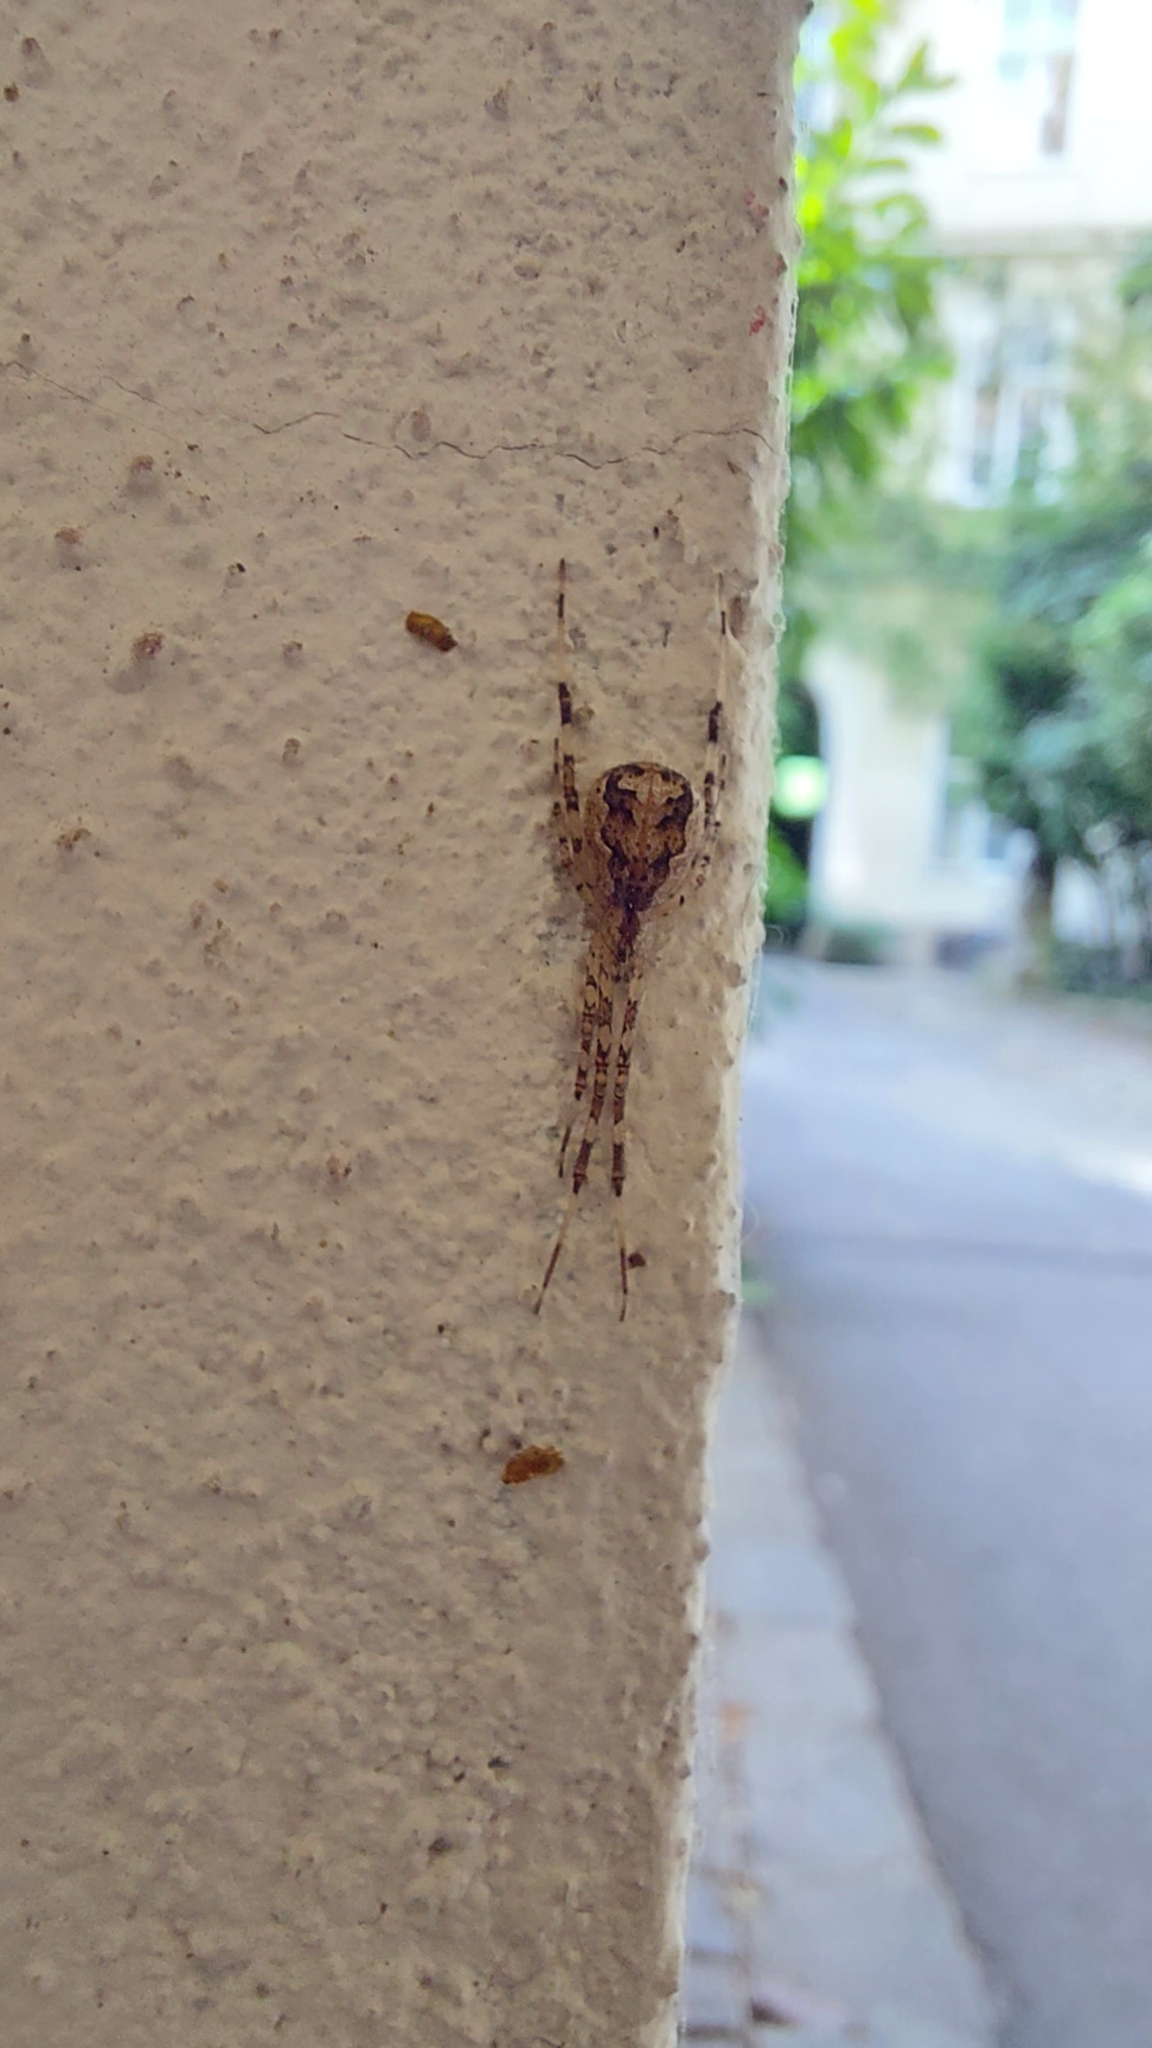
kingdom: Animalia
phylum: Arthropoda
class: Arachnida
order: Araneae
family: Theridiidae
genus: Episinus
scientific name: Episinus maculipes
